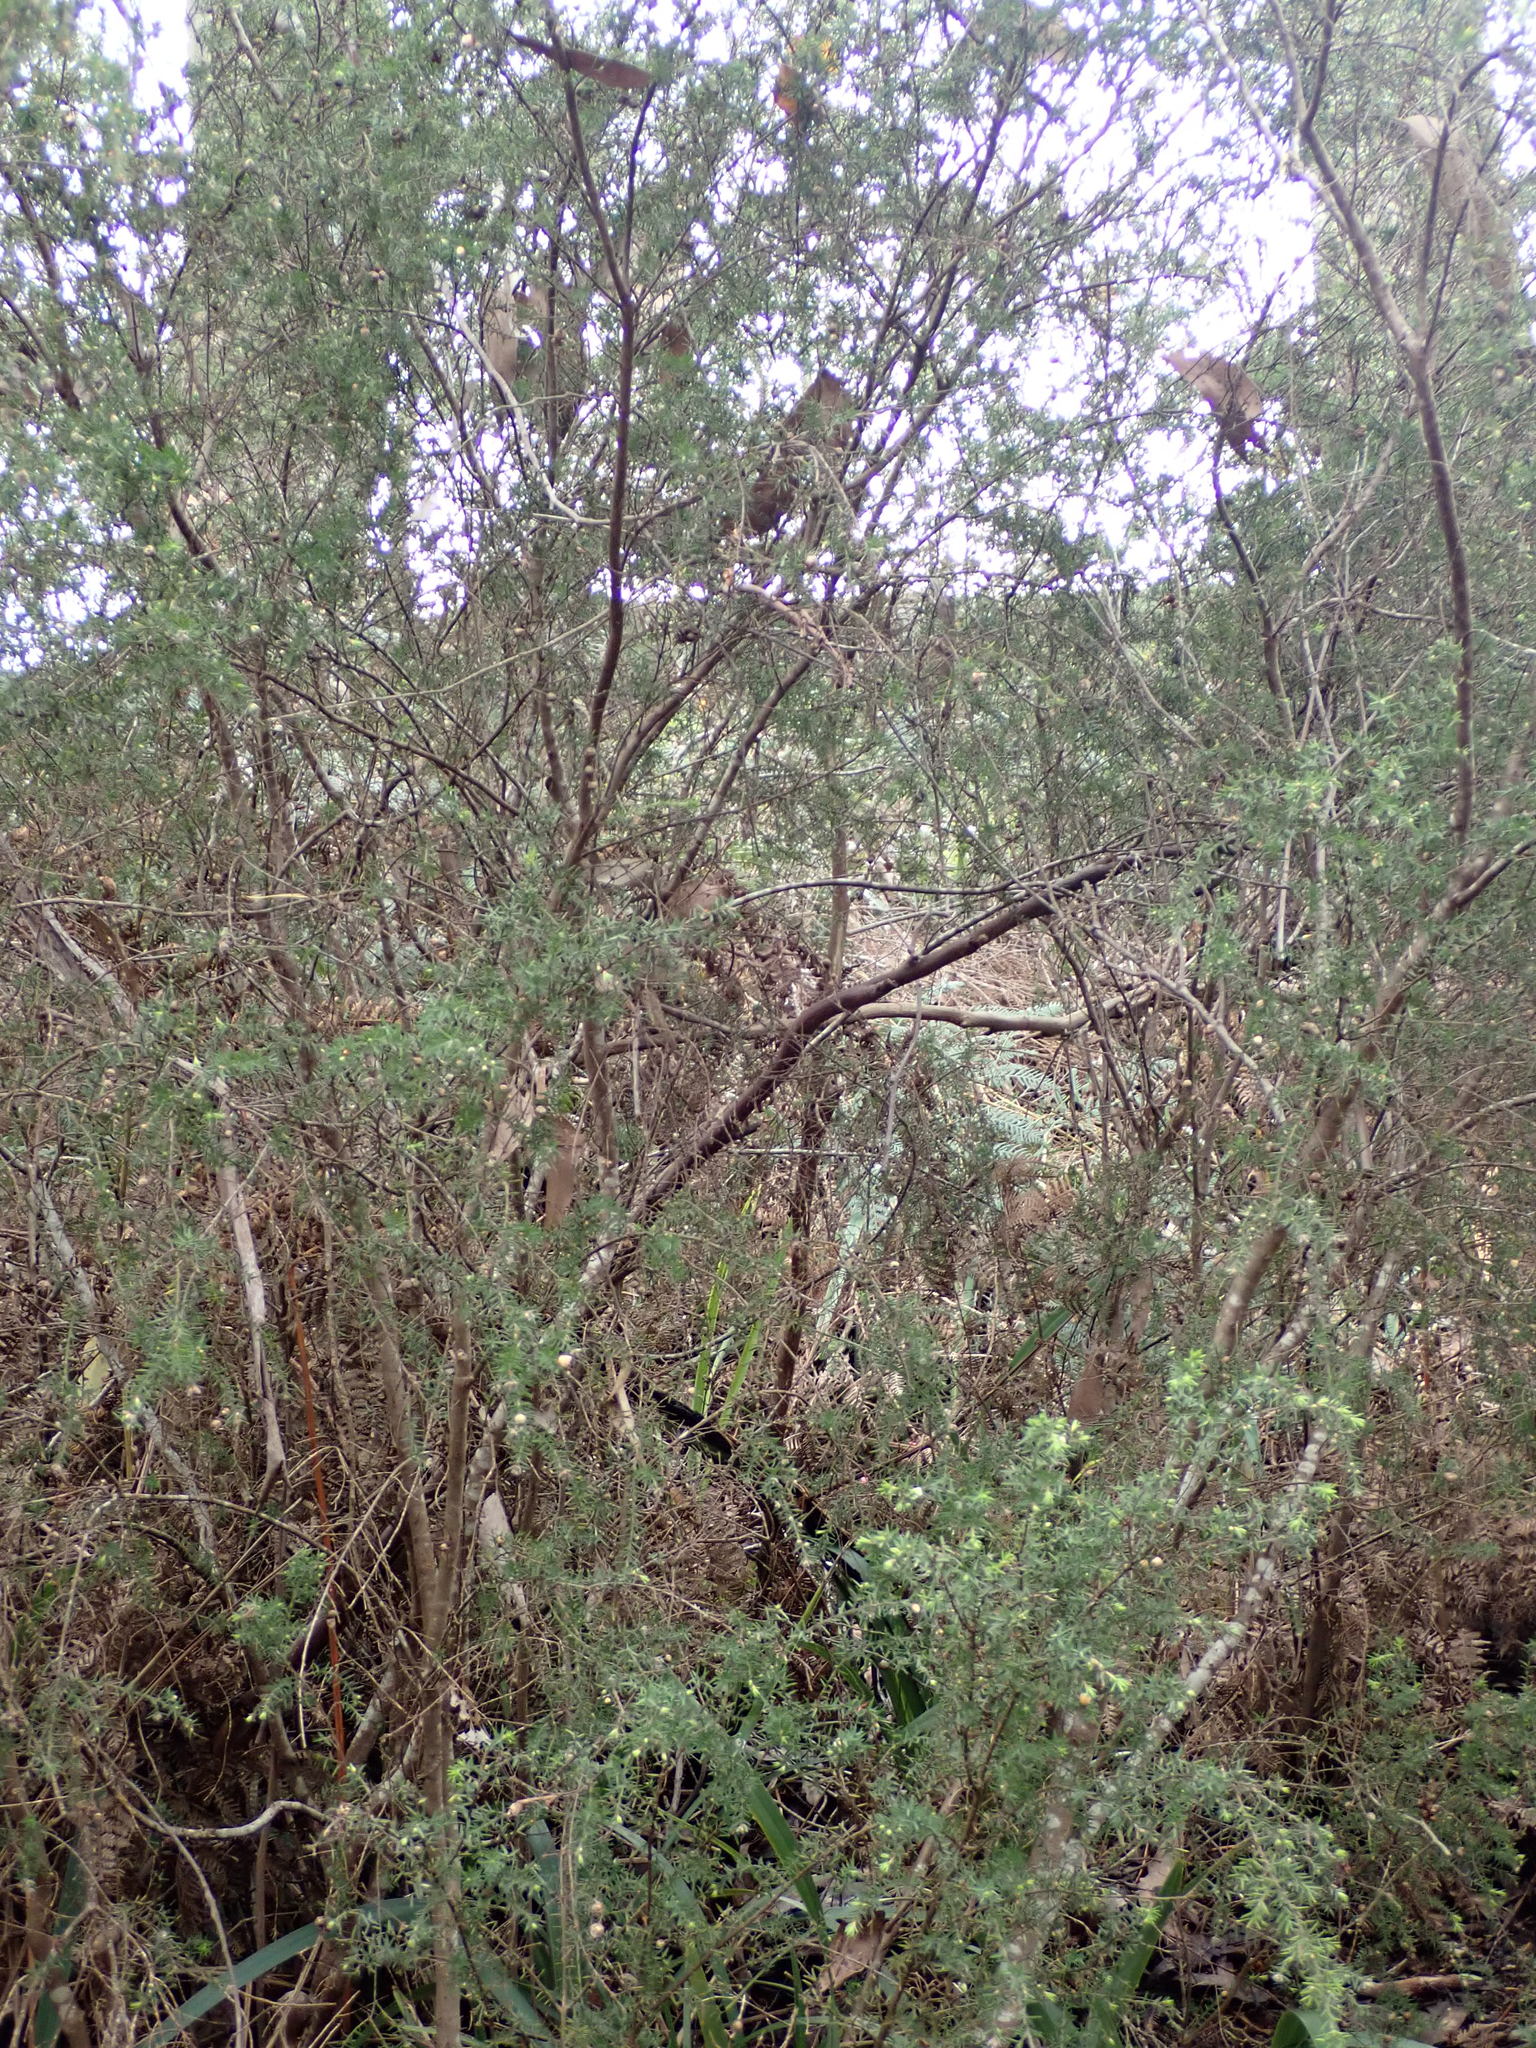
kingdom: Plantae
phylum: Tracheophyta
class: Magnoliopsida
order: Fabales
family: Fabaceae
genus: Pultenaea
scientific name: Pultenaea juniperina
